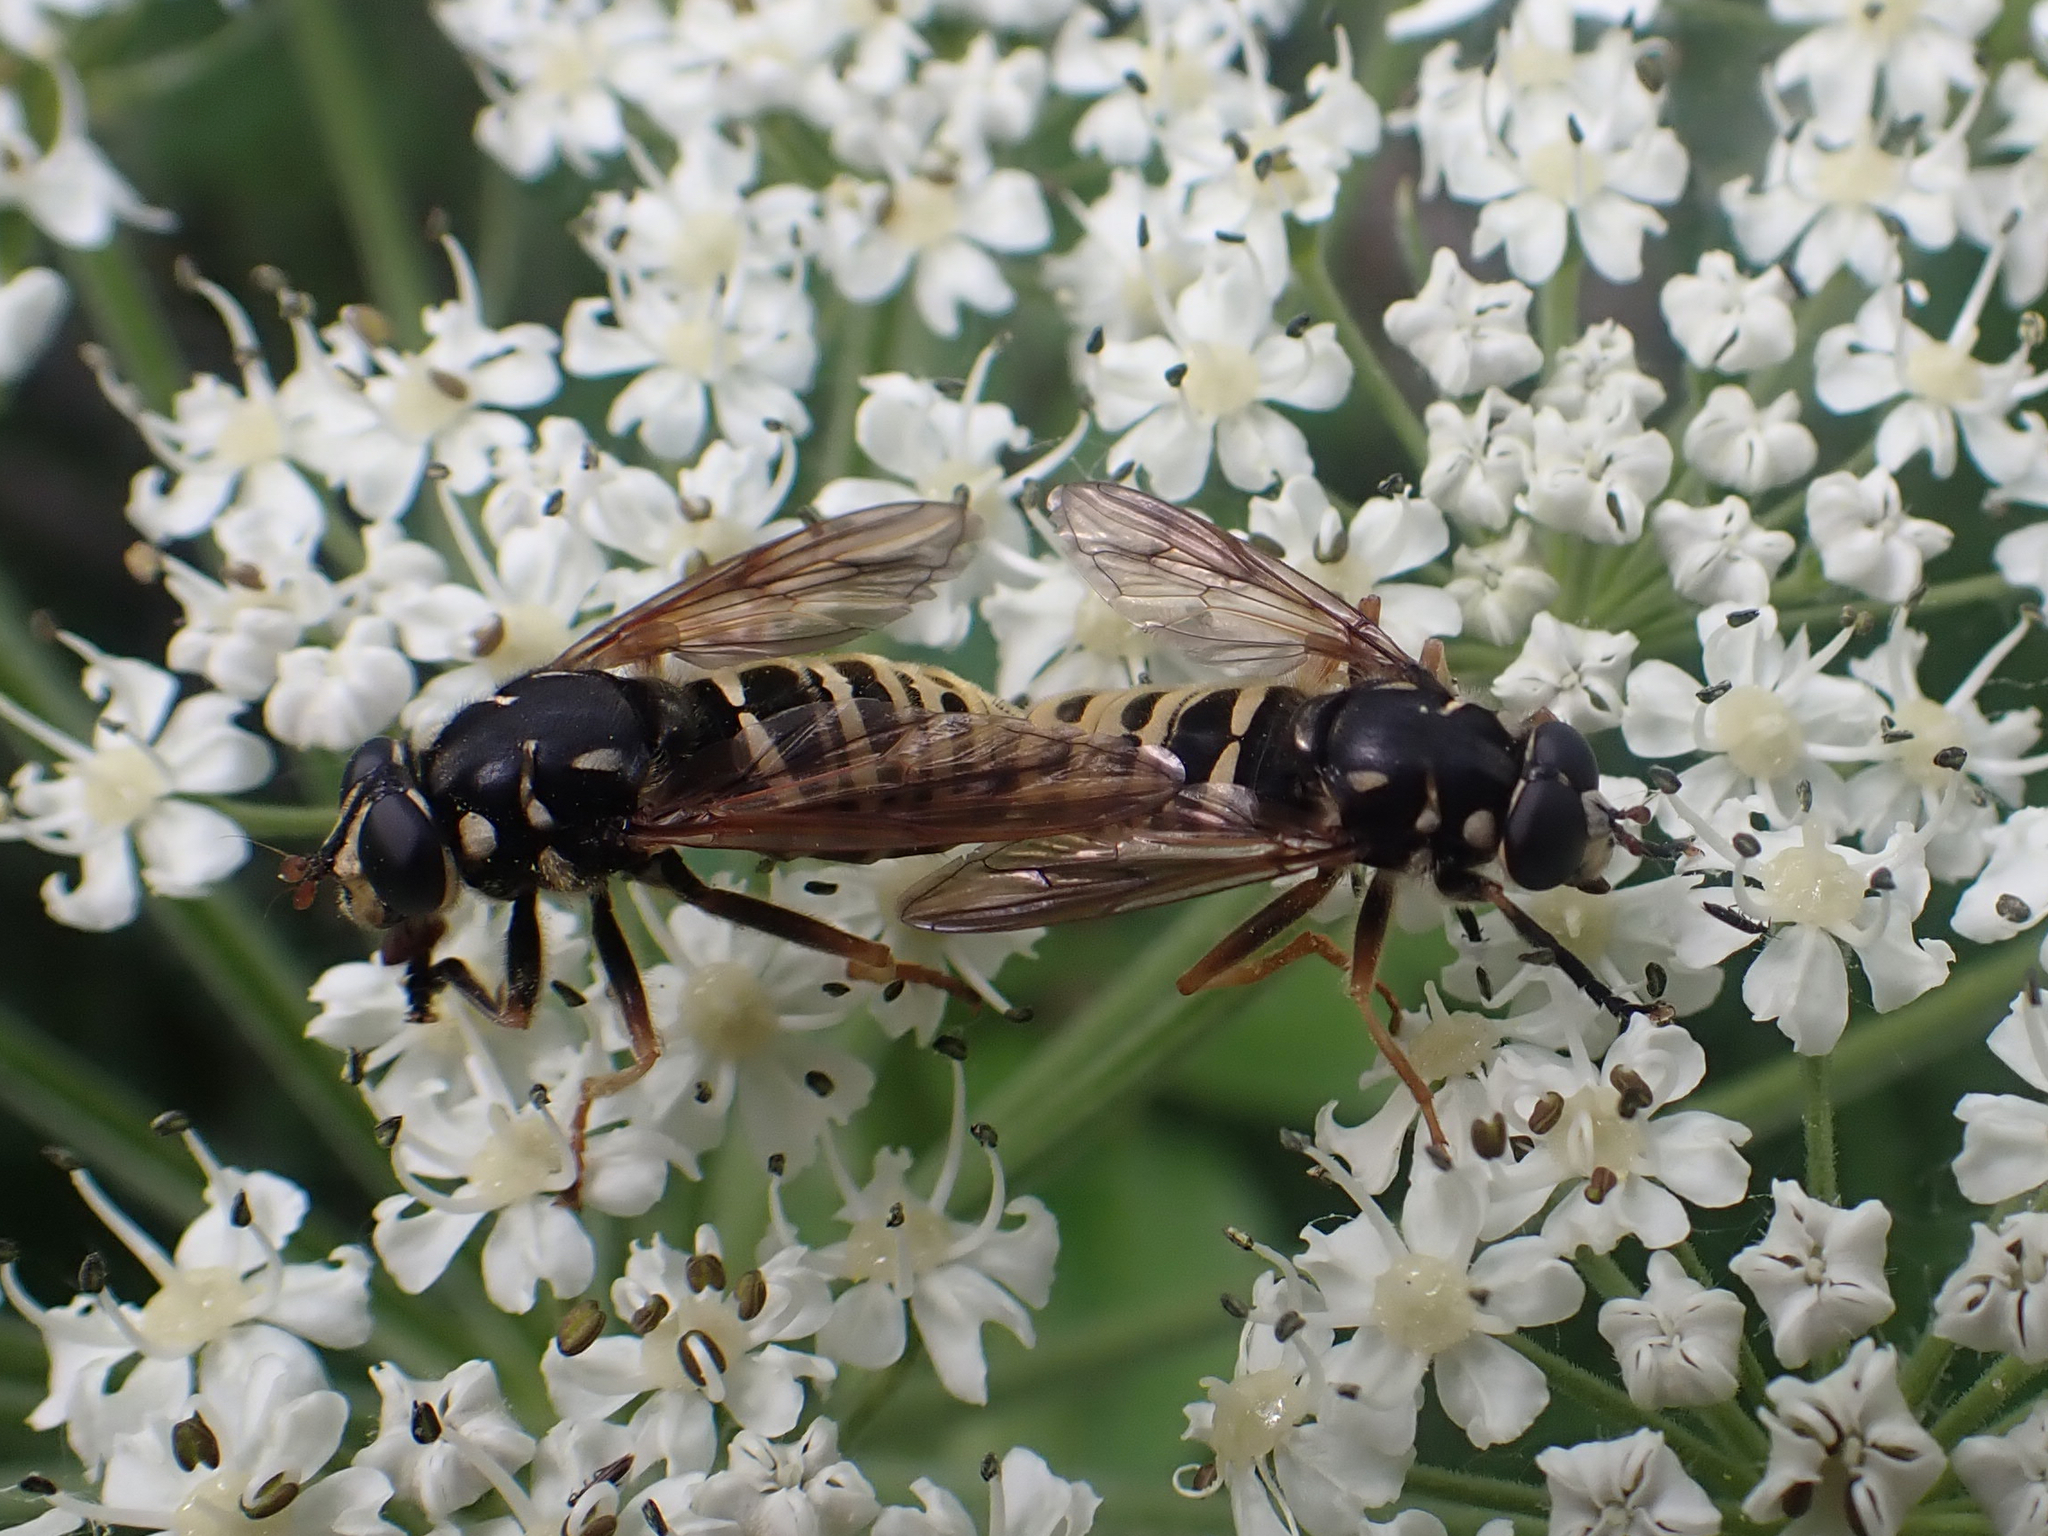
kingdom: Animalia
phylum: Arthropoda
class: Insecta
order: Diptera
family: Syrphidae
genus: Temnostoma
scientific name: Temnostoma excentricum
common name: Black-spotted falsehorn
